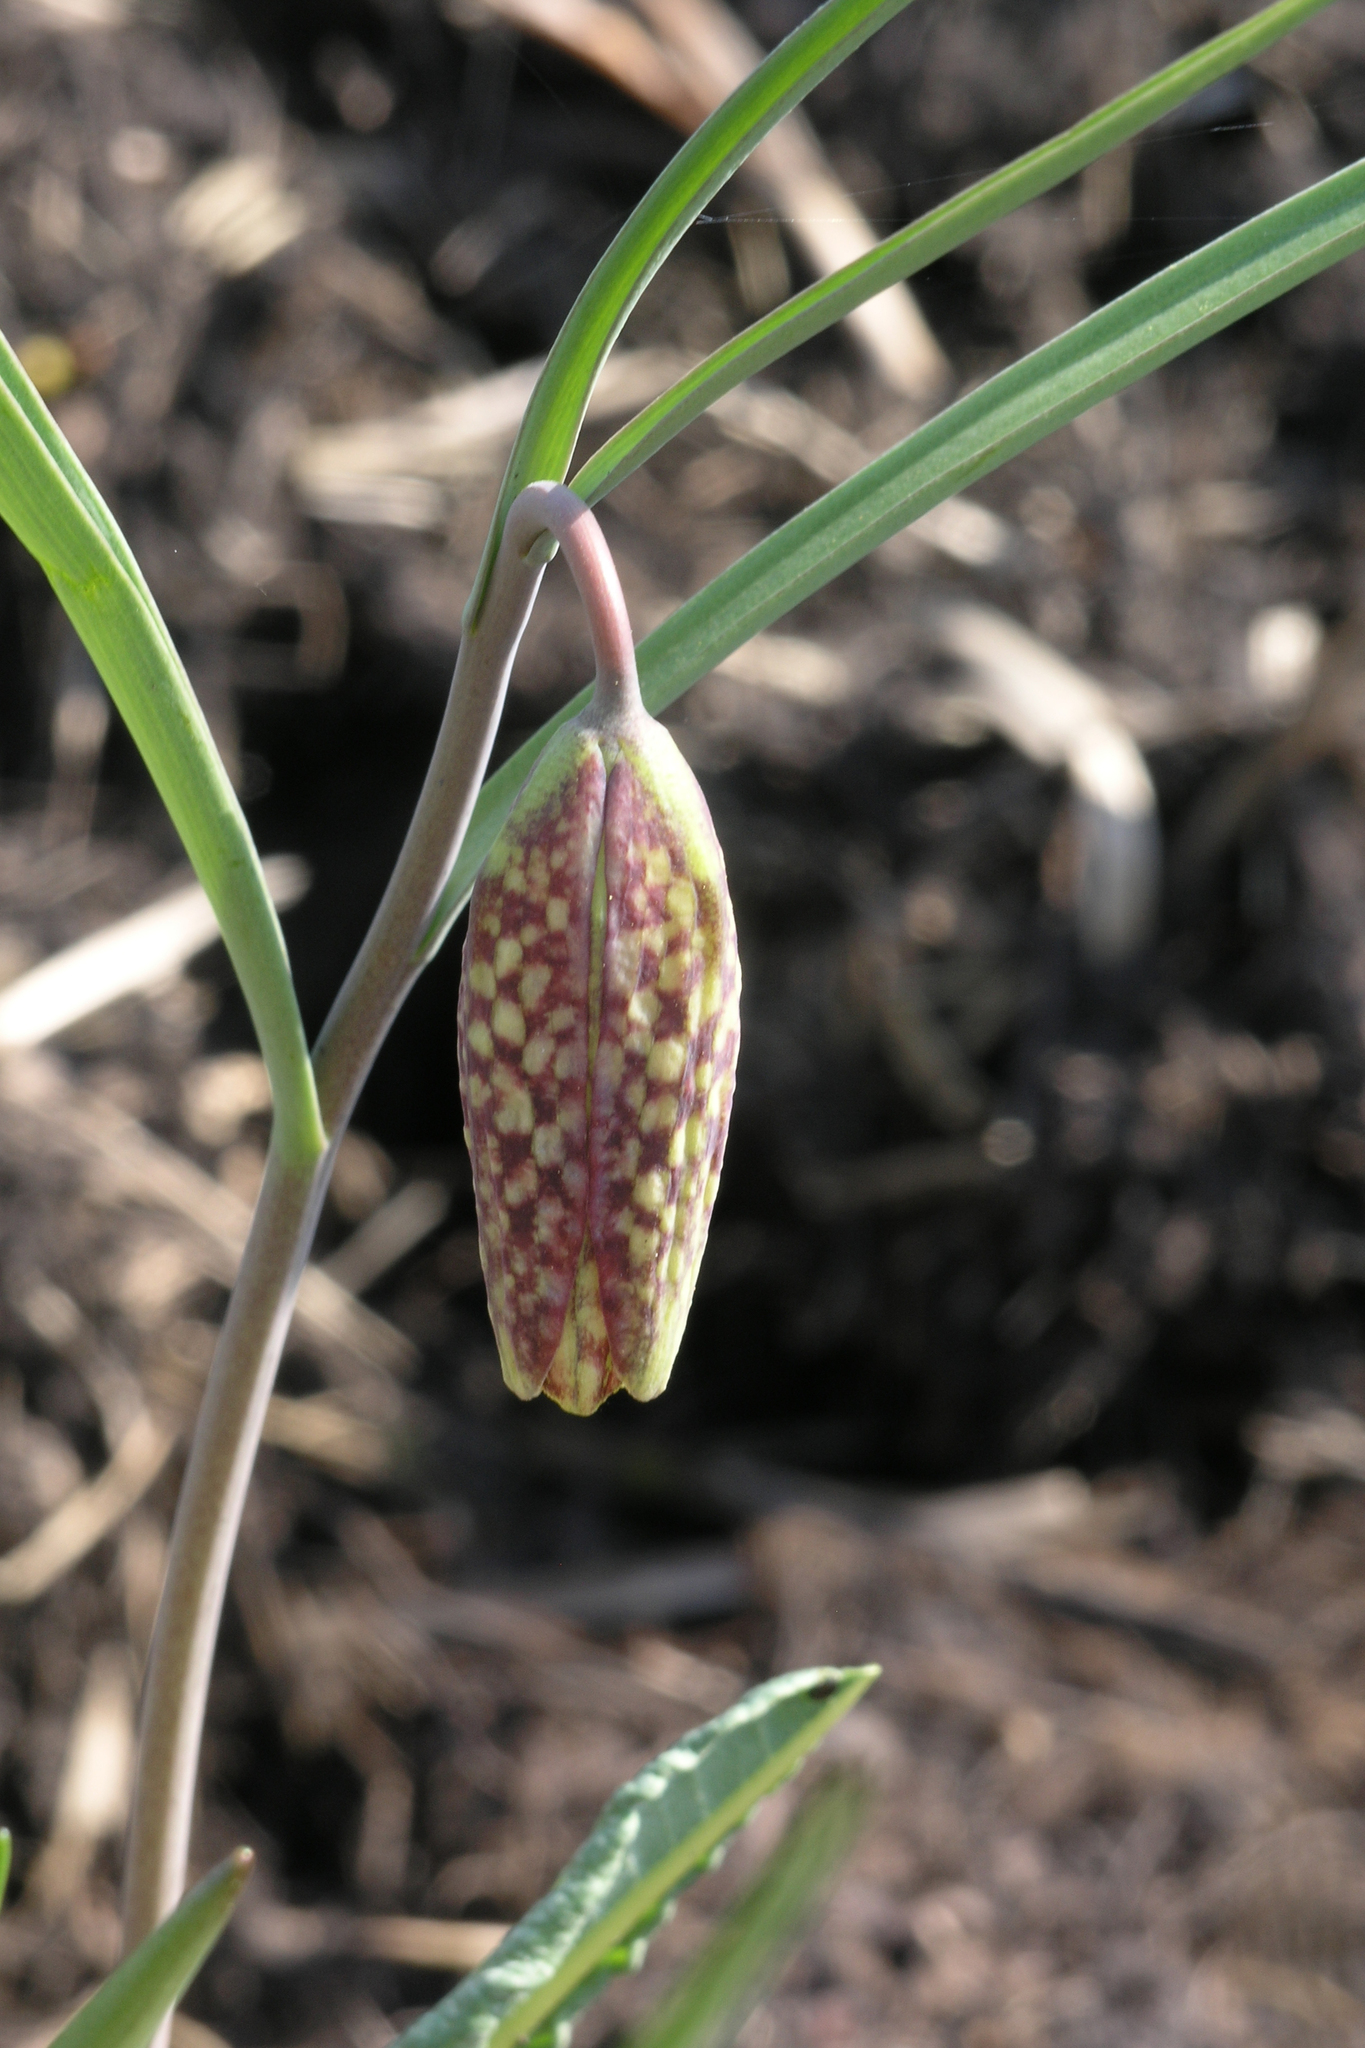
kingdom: Plantae
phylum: Tracheophyta
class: Liliopsida
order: Liliales
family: Liliaceae
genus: Fritillaria
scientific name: Fritillaria meleagris
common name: Fritillary
